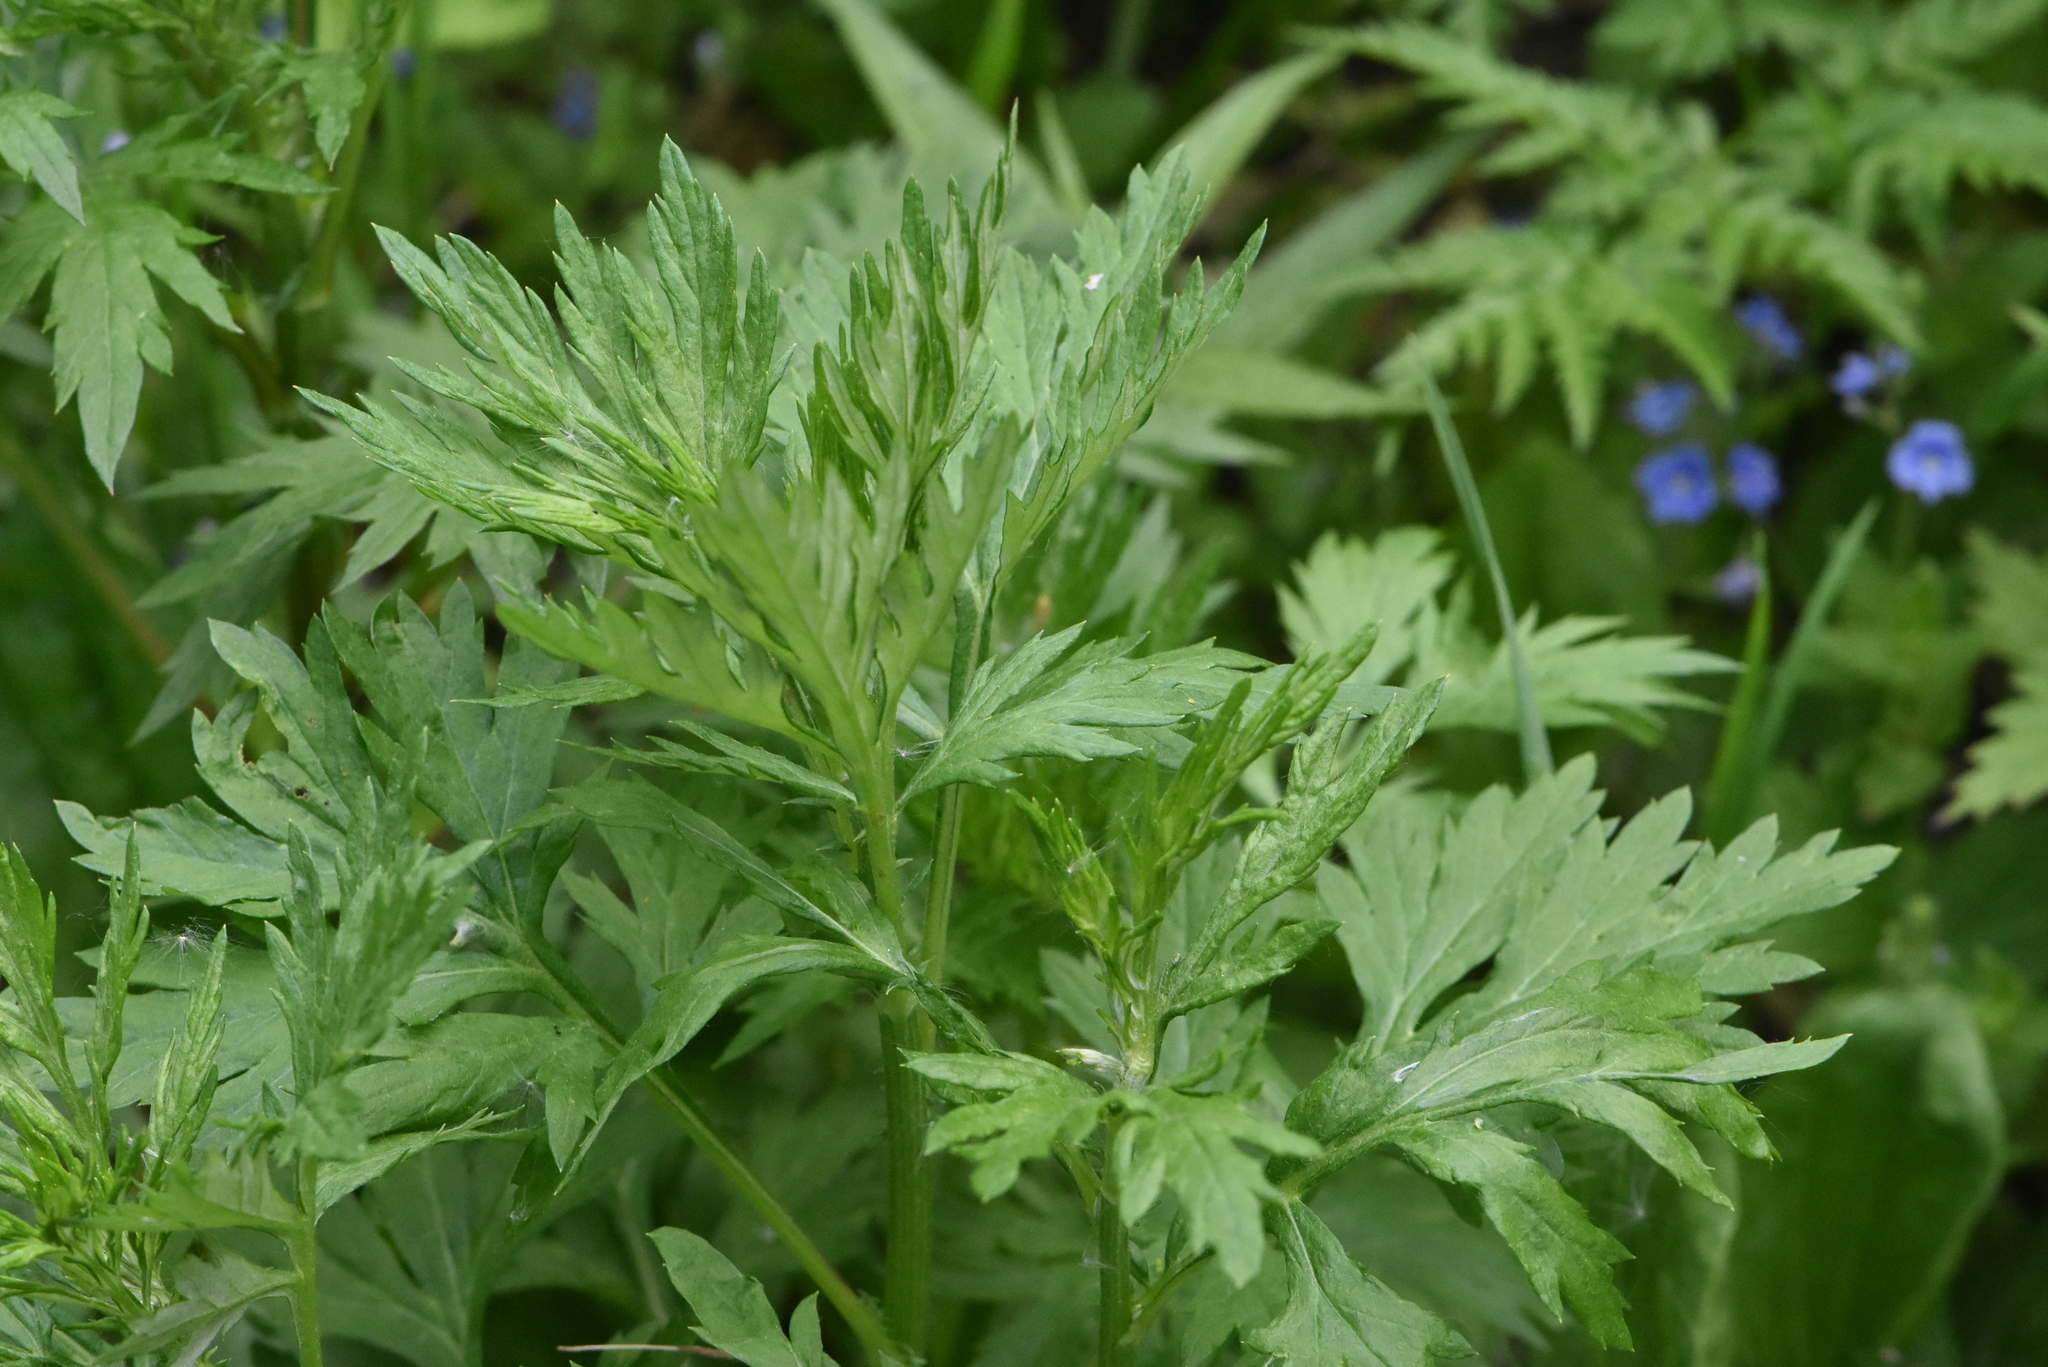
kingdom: Plantae
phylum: Tracheophyta
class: Magnoliopsida
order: Asterales
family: Asteraceae
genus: Artemisia
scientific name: Artemisia vulgaris
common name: Mugwort
